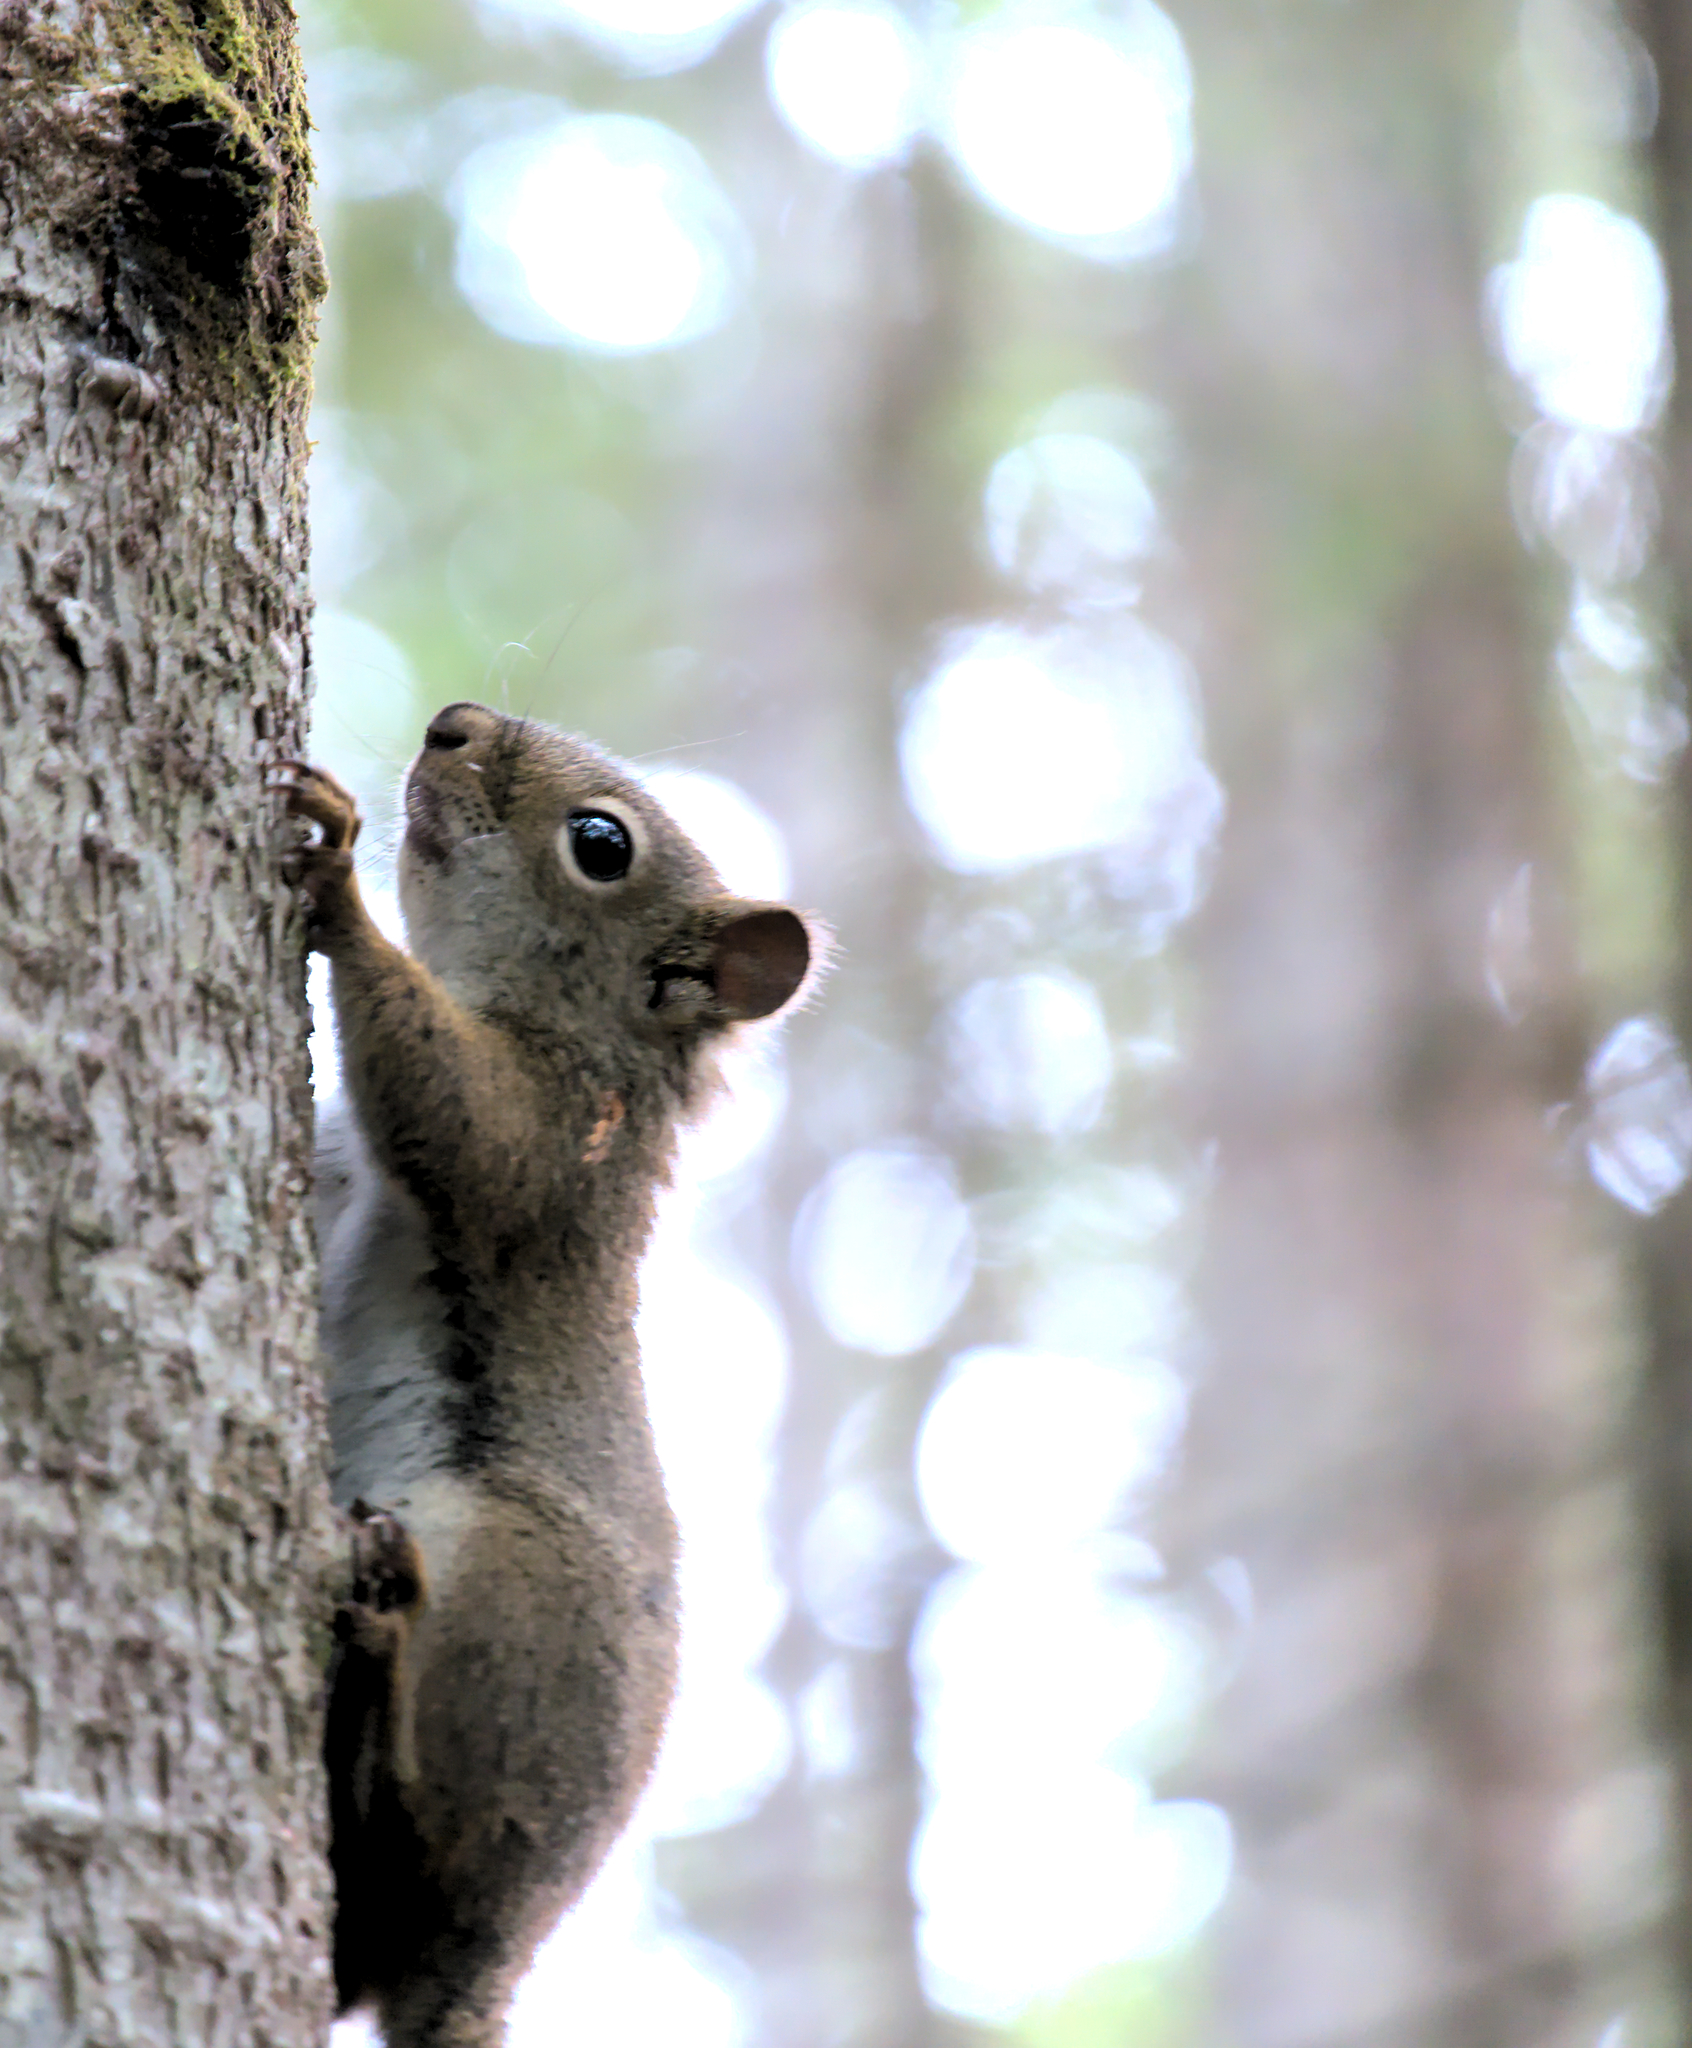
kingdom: Animalia
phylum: Chordata
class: Mammalia
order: Rodentia
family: Sciuridae
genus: Tamiasciurus
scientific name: Tamiasciurus hudsonicus
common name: Red squirrel
